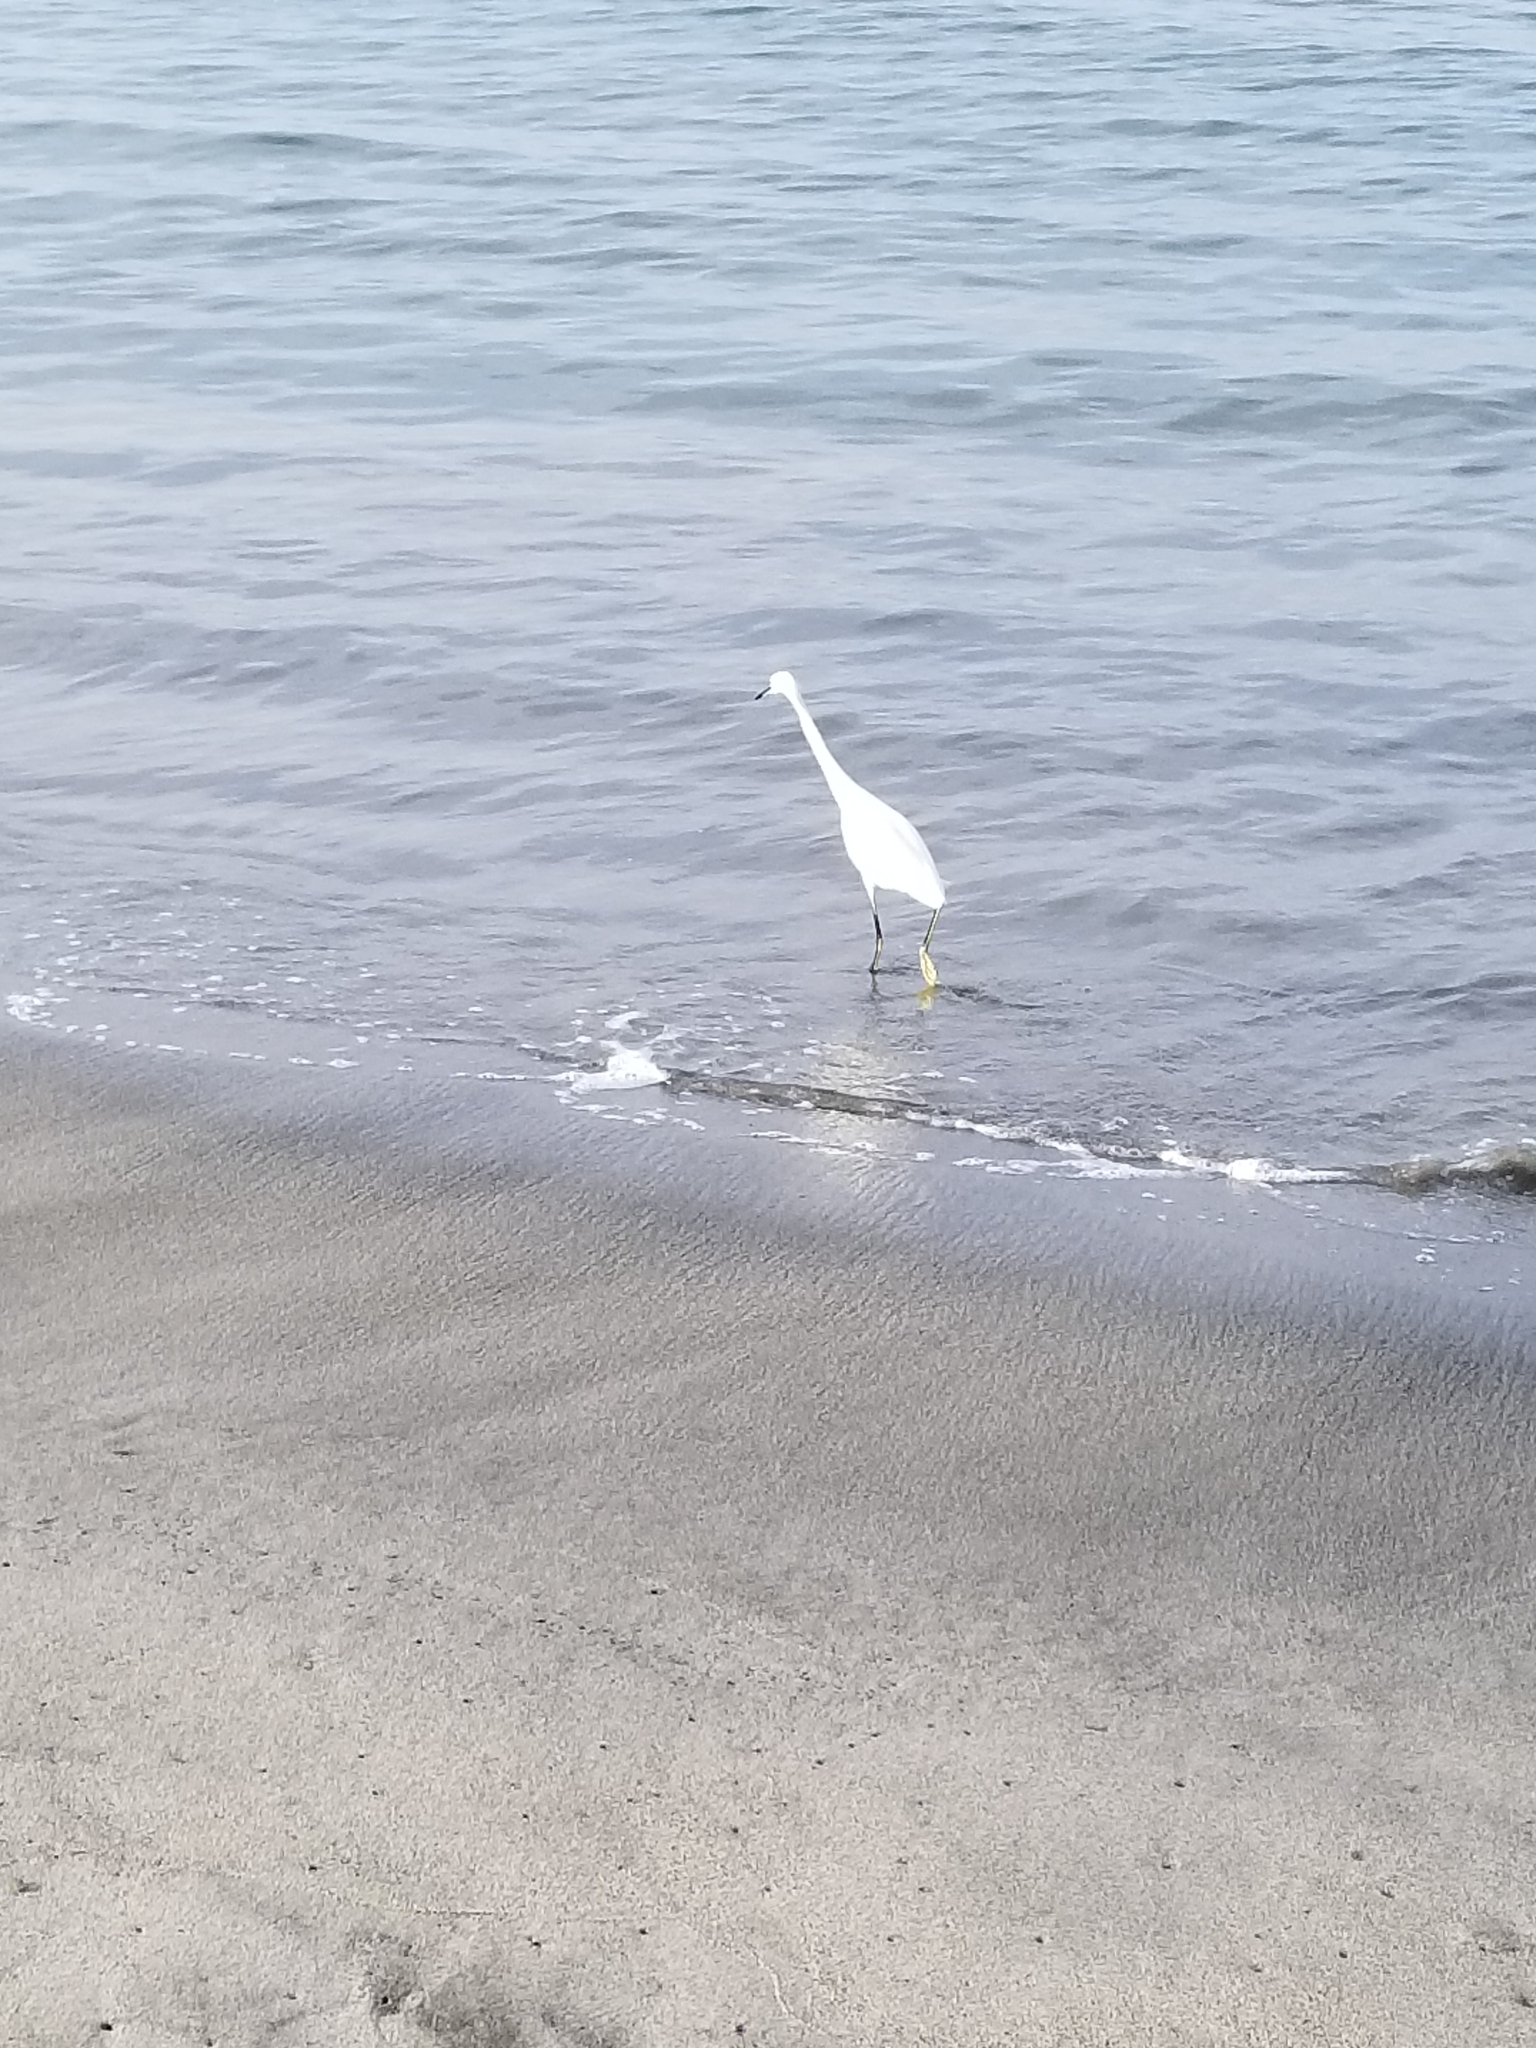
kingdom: Animalia
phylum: Chordata
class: Aves
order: Pelecaniformes
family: Ardeidae
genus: Egretta
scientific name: Egretta thula
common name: Snowy egret
